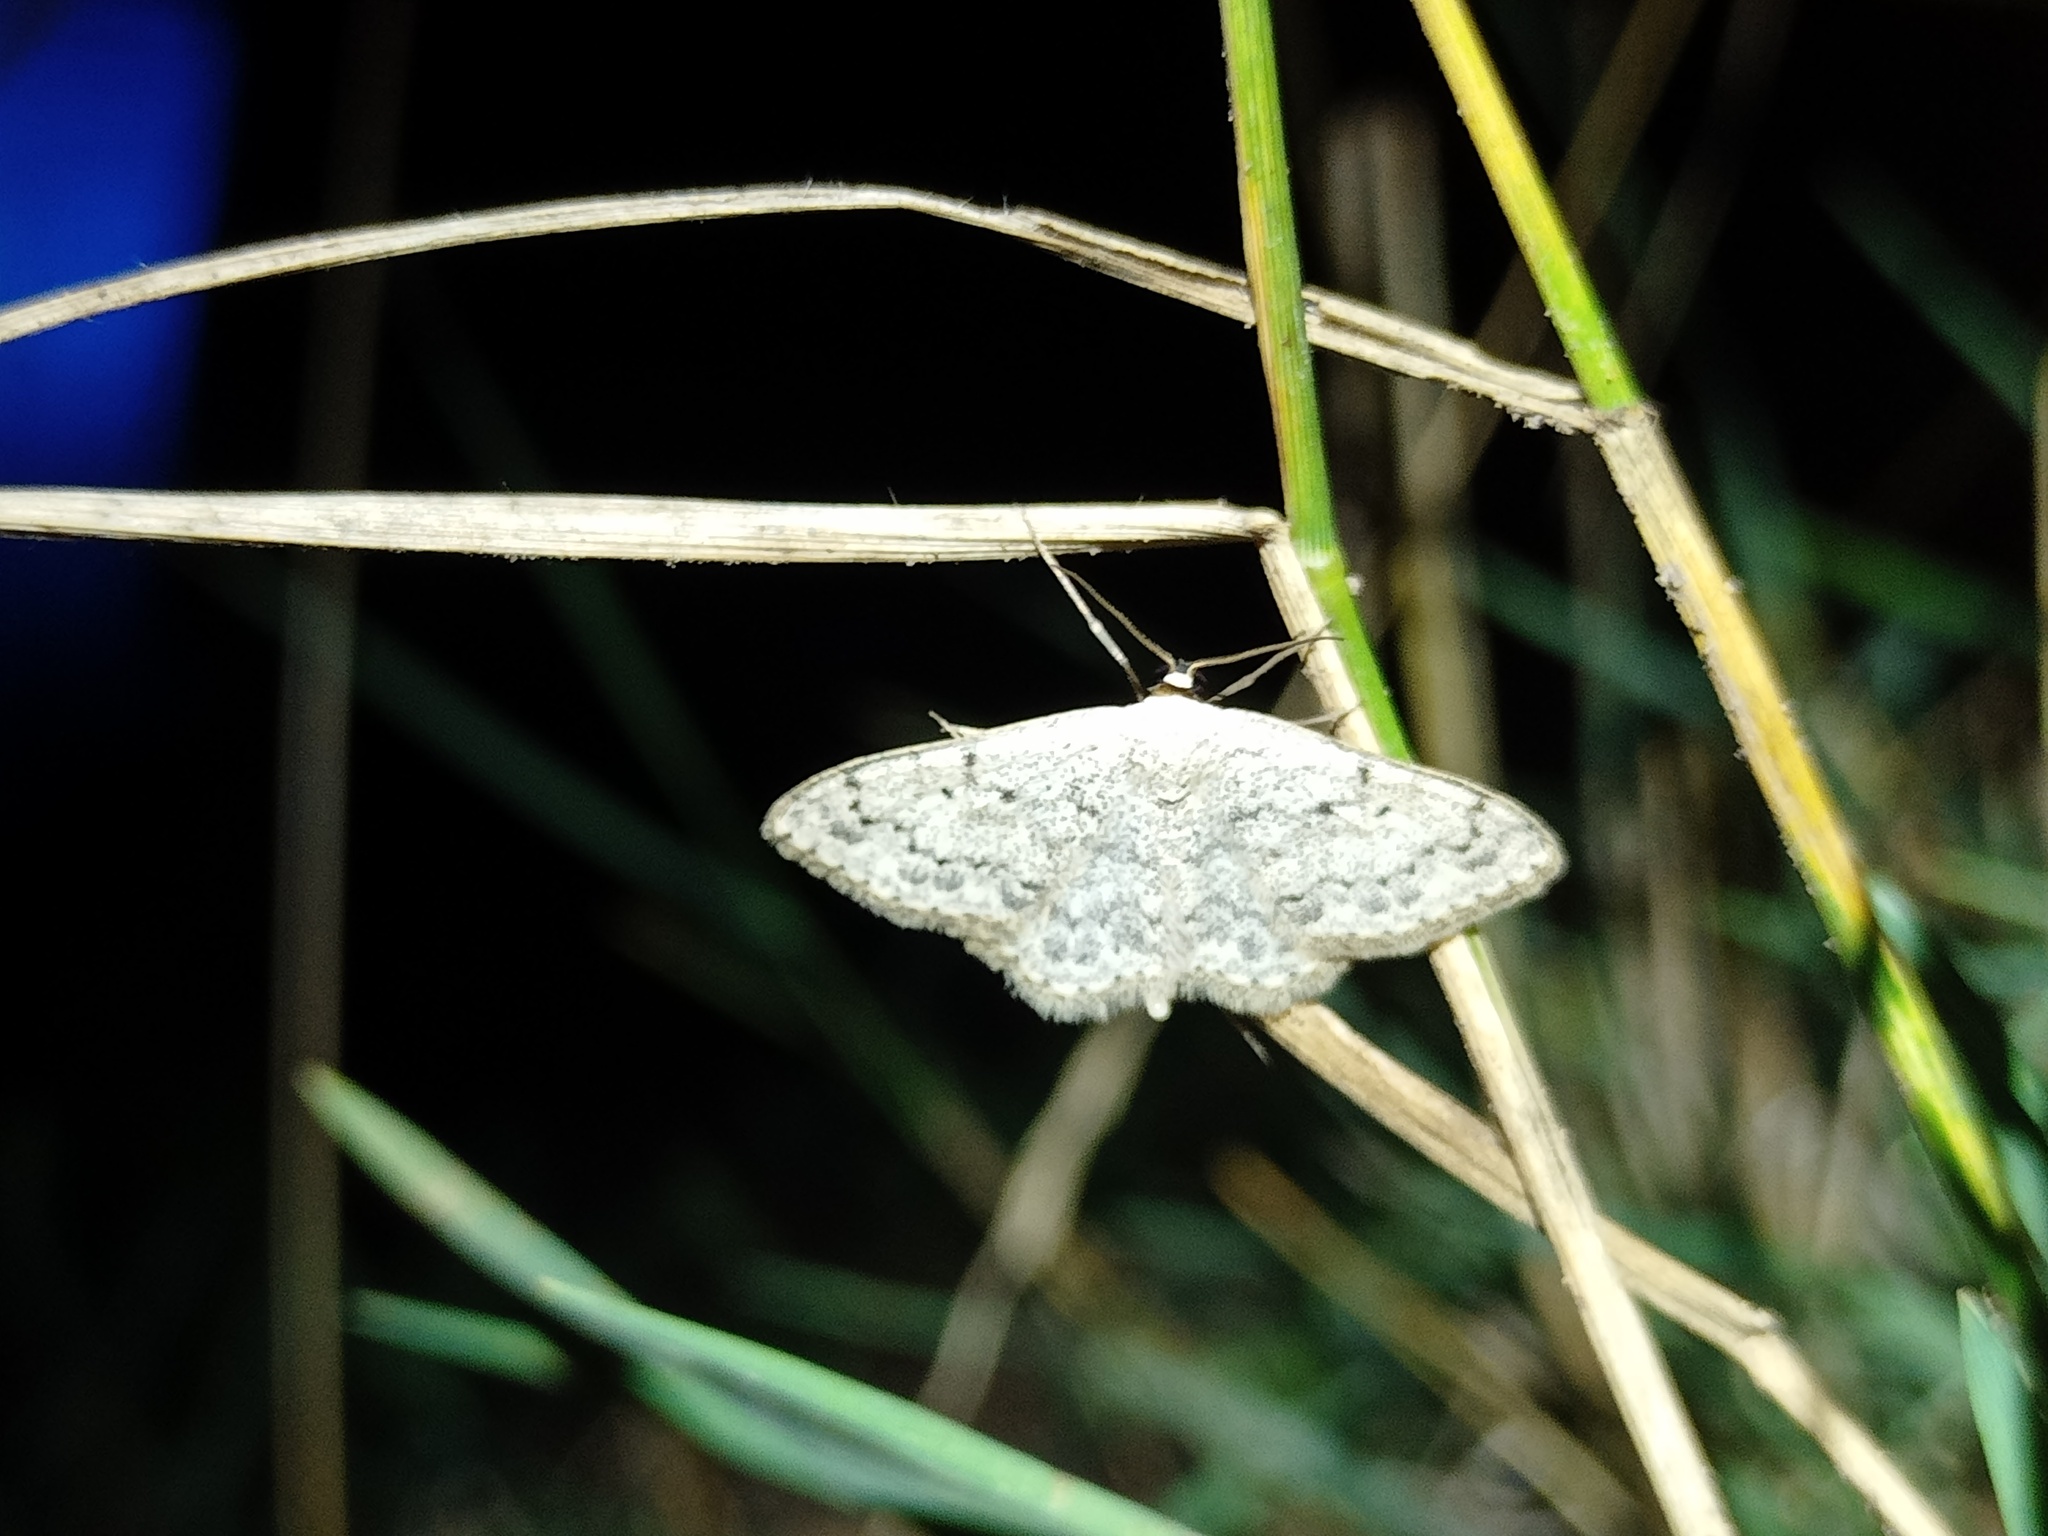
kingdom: Animalia
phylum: Arthropoda
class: Insecta
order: Lepidoptera
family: Geometridae
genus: Scopula
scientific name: Scopula marginepunctata
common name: Mullein wave
